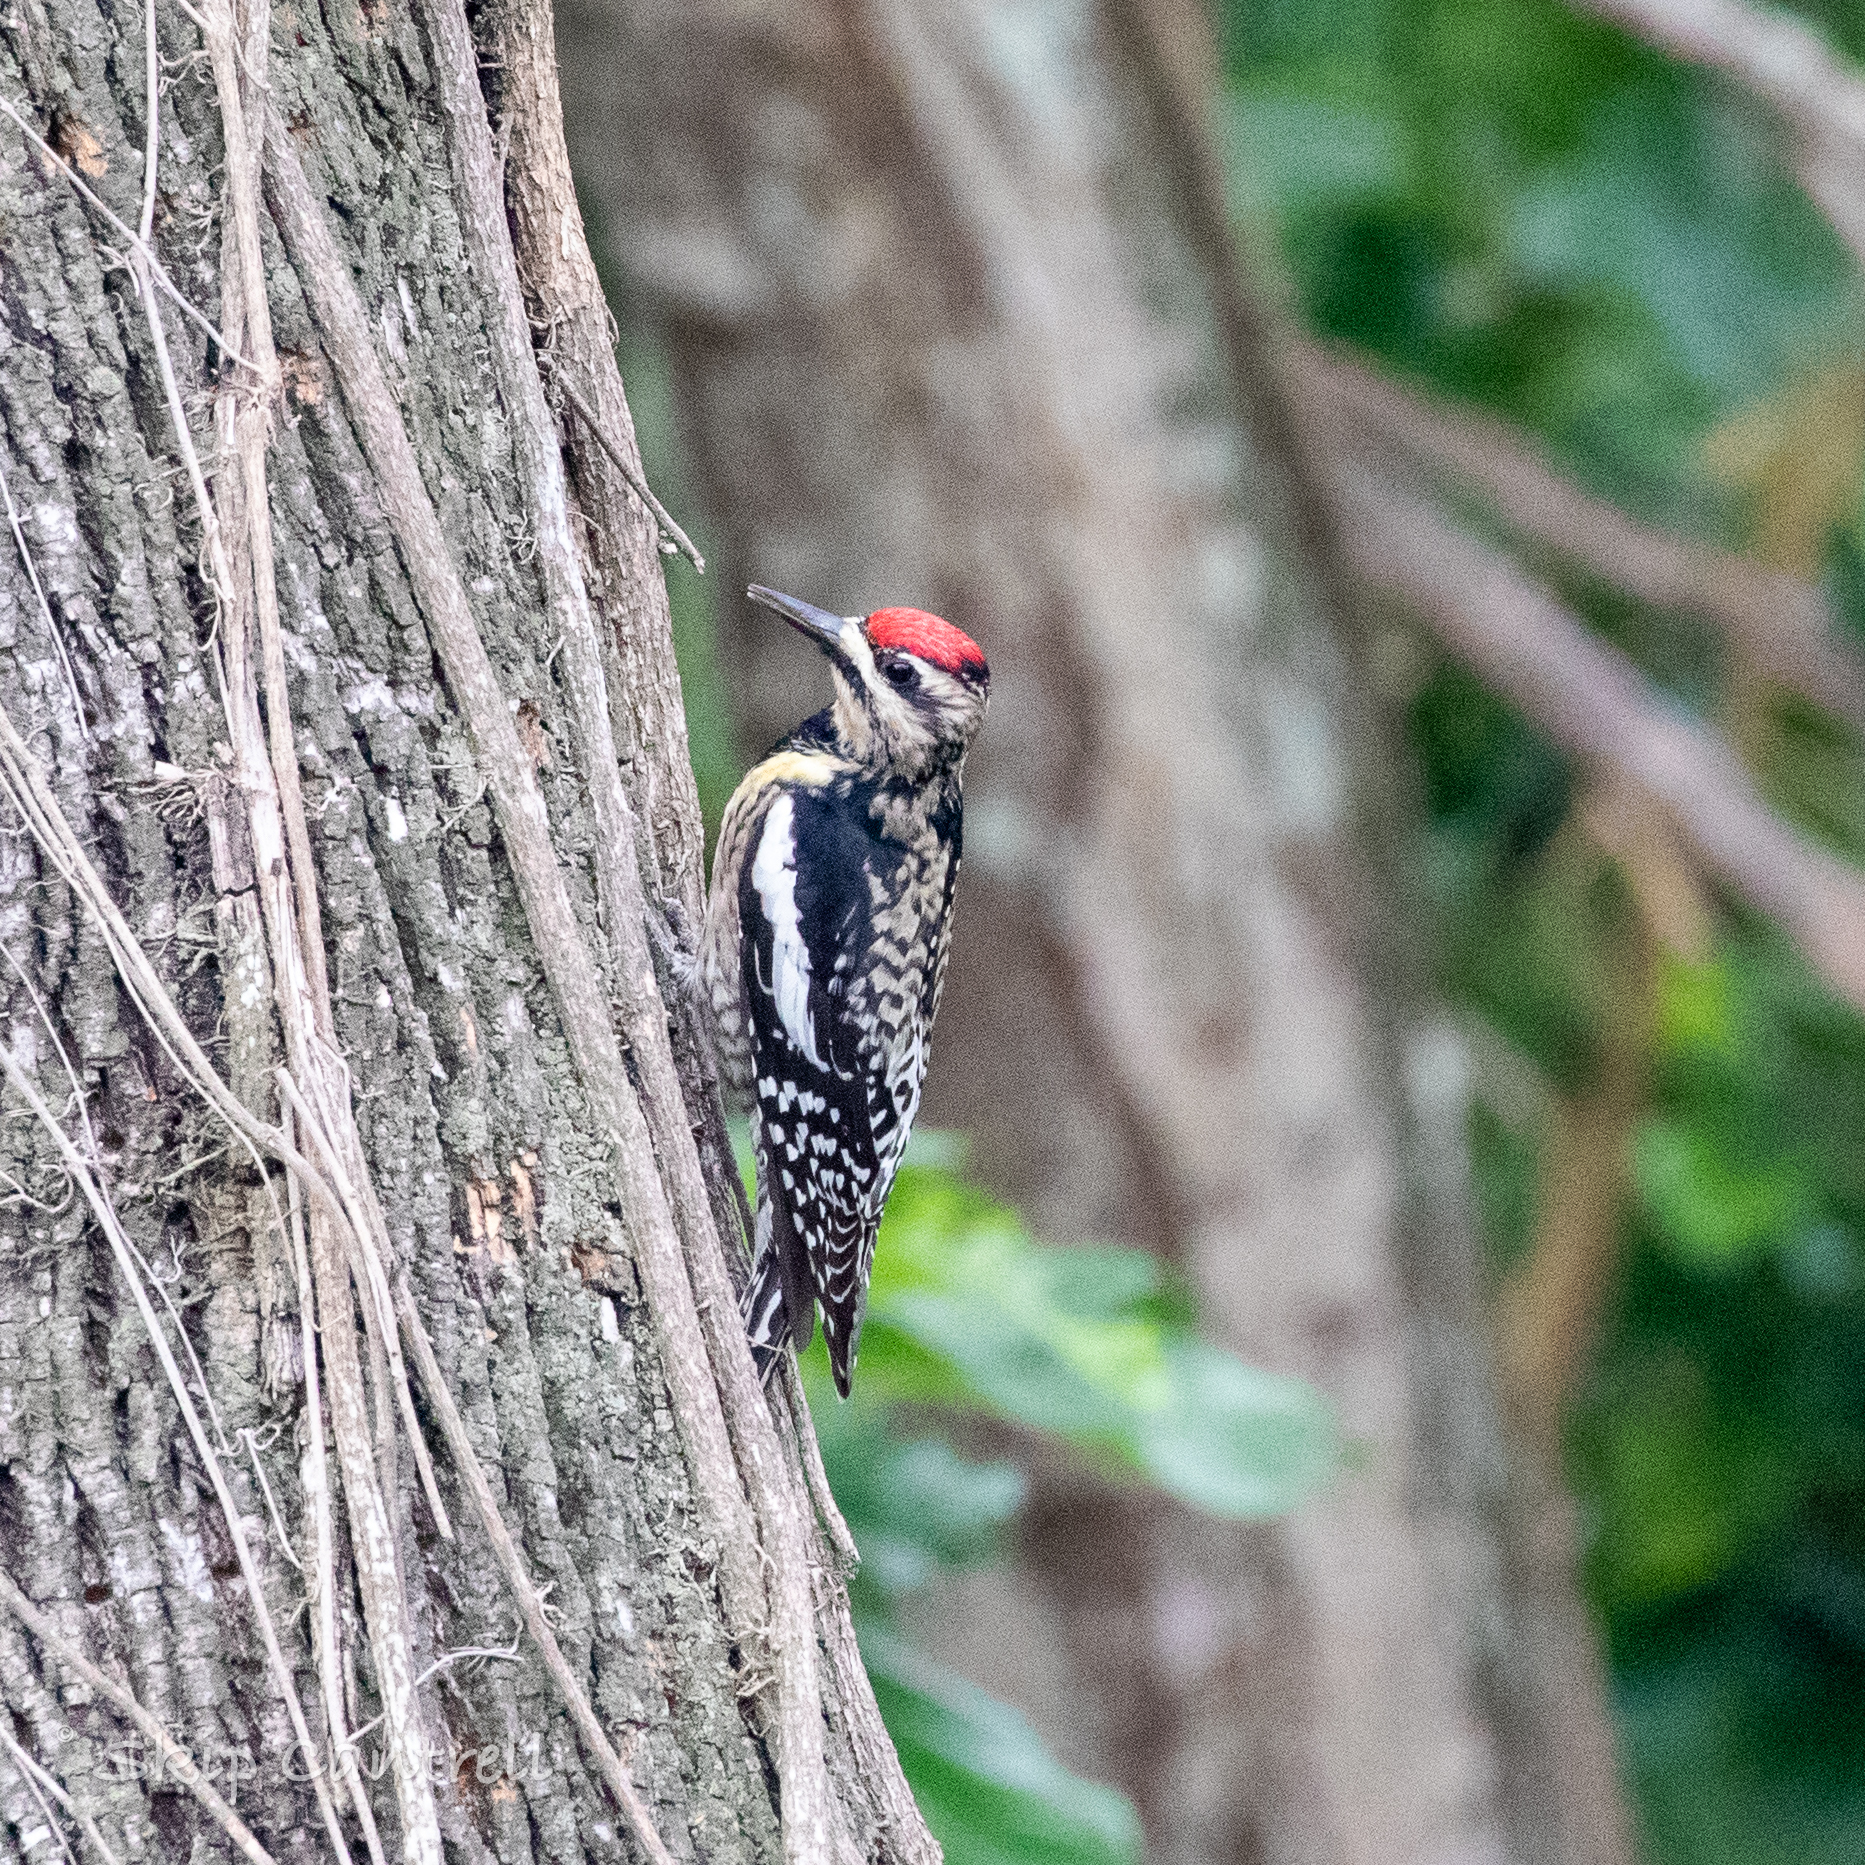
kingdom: Animalia
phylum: Chordata
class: Aves
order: Piciformes
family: Picidae
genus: Sphyrapicus
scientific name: Sphyrapicus varius
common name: Yellow-bellied sapsucker
